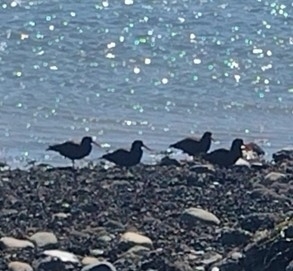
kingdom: Animalia
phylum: Chordata
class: Aves
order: Charadriiformes
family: Haematopodidae
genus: Haematopus
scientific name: Haematopus bachmani
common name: Black oystercatcher
